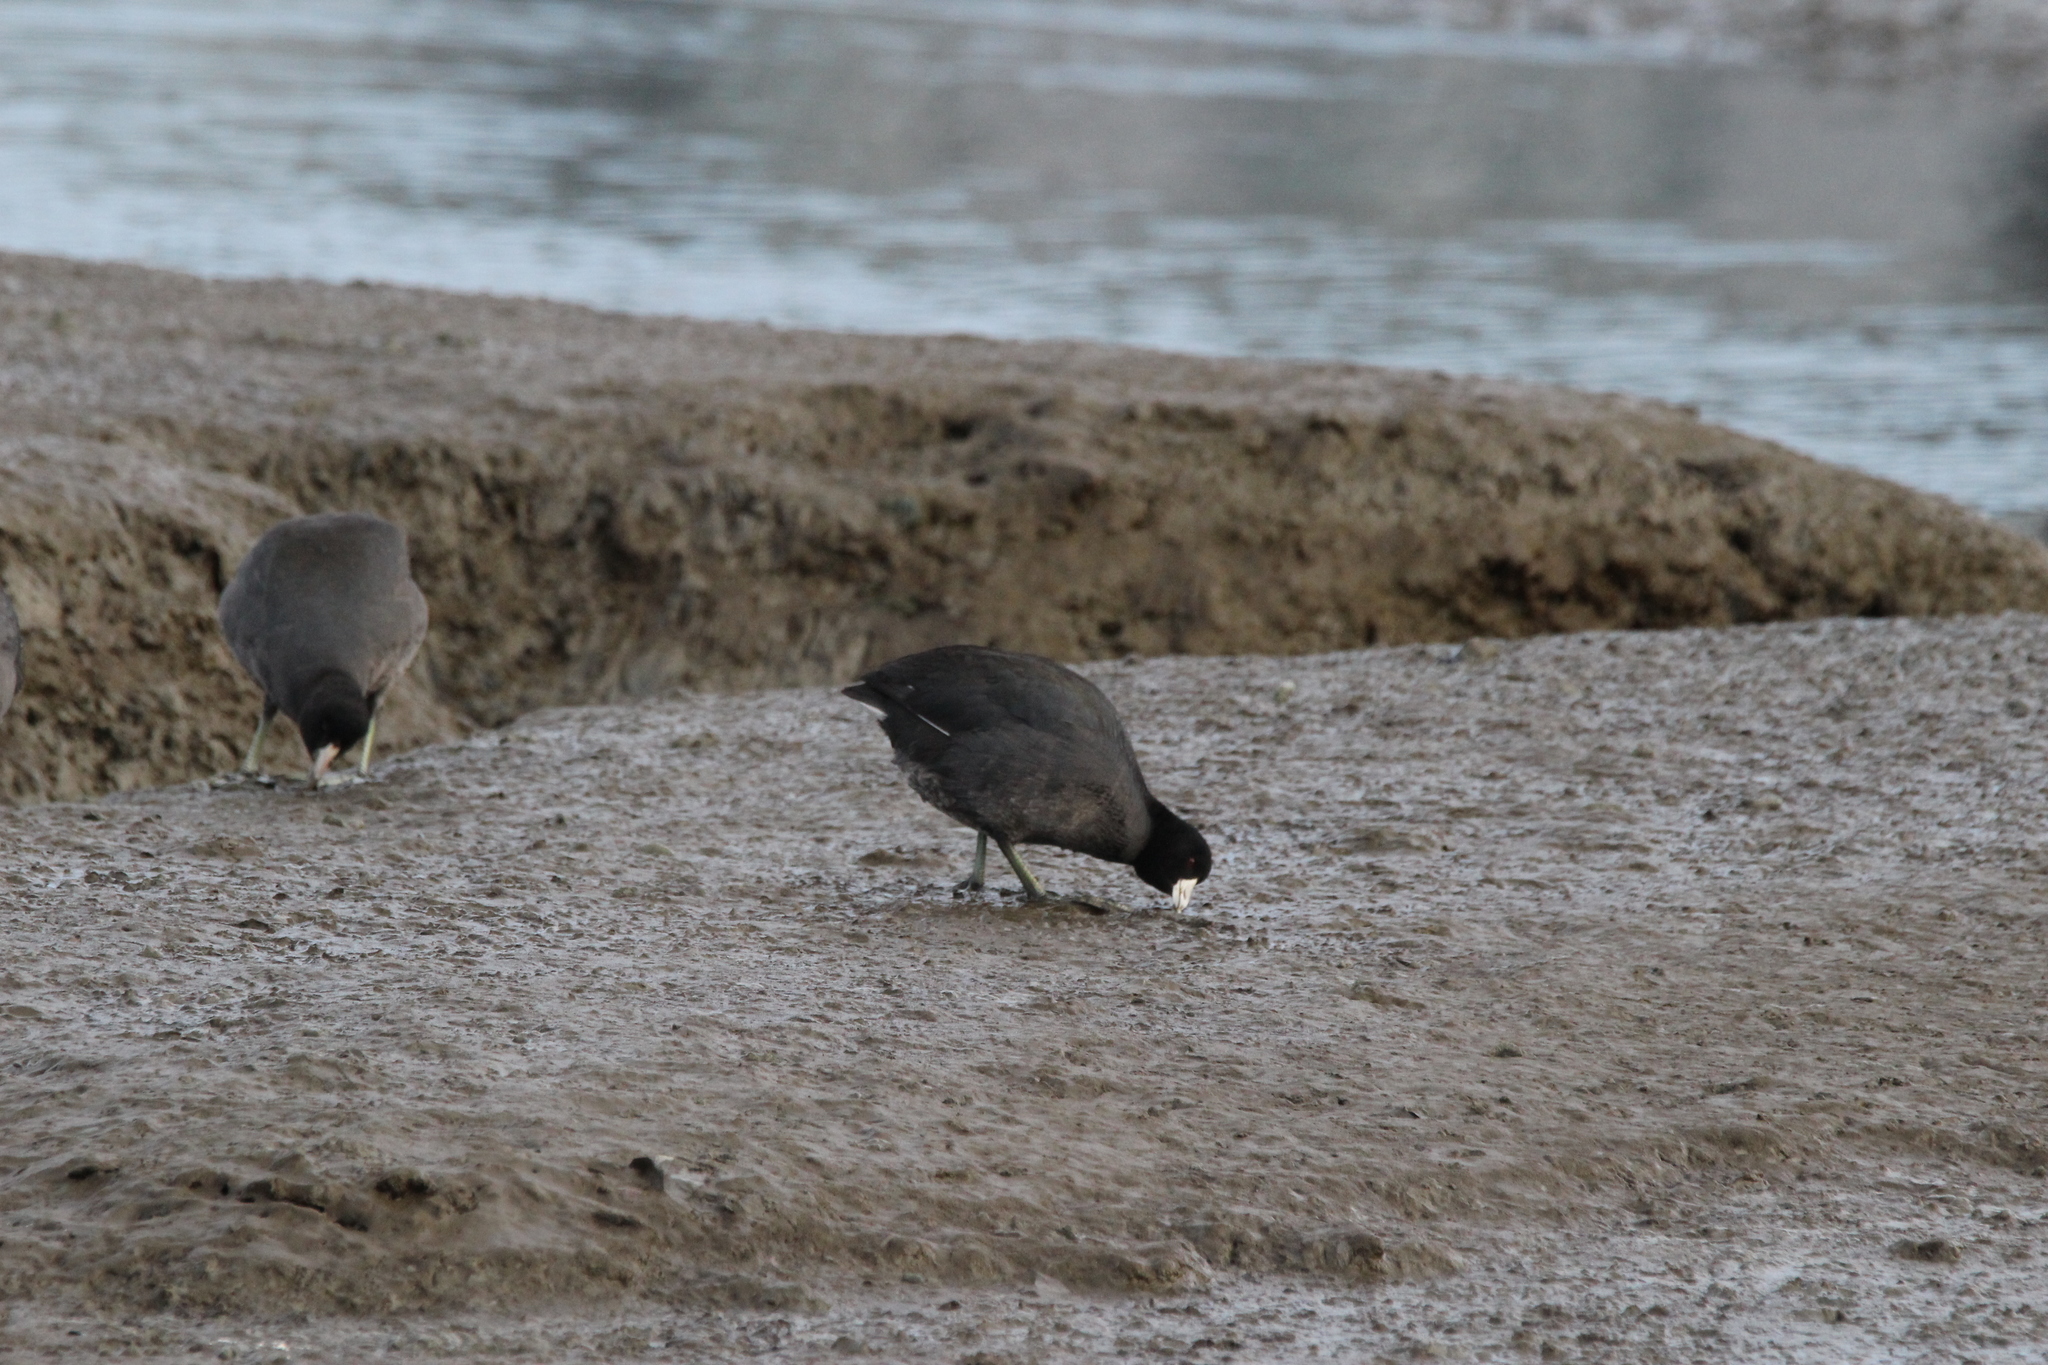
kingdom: Animalia
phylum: Chordata
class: Aves
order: Gruiformes
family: Rallidae
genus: Fulica
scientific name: Fulica americana
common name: American coot
